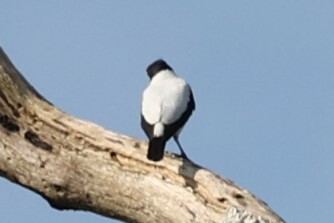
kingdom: Animalia
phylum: Chordata
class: Aves
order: Passeriformes
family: Cotingidae
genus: Tityra
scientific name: Tityra cayana
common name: Black-tailed tityra
